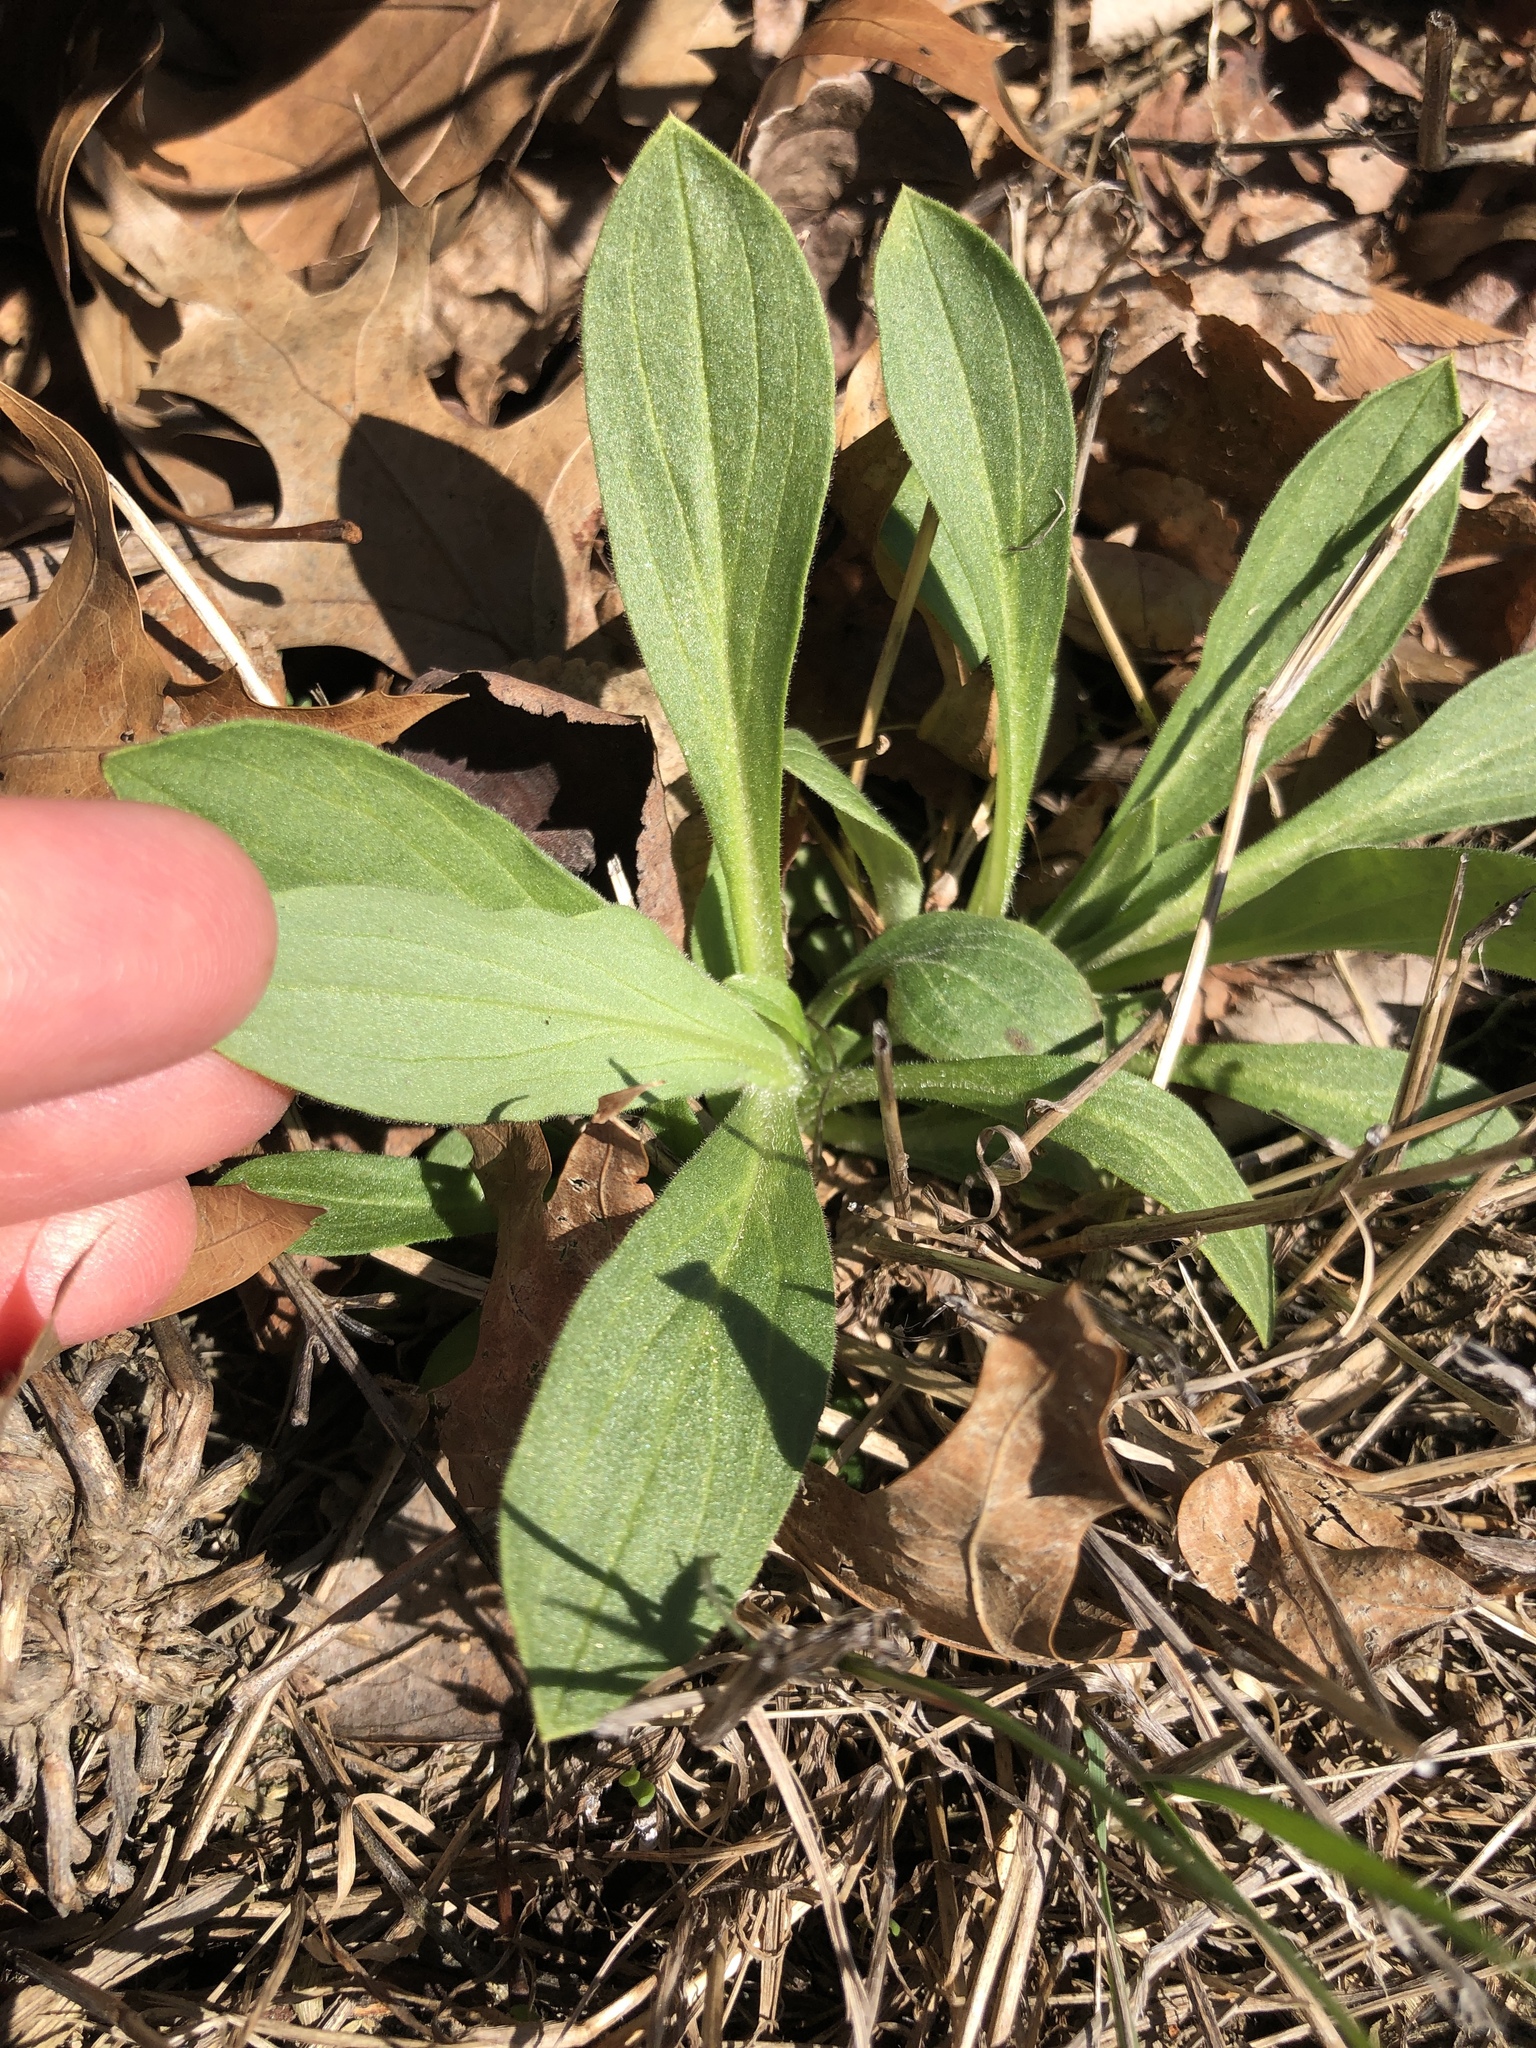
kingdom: Plantae
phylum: Tracheophyta
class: Magnoliopsida
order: Caryophyllales
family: Caryophyllaceae
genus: Silene
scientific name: Silene latifolia
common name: White campion
